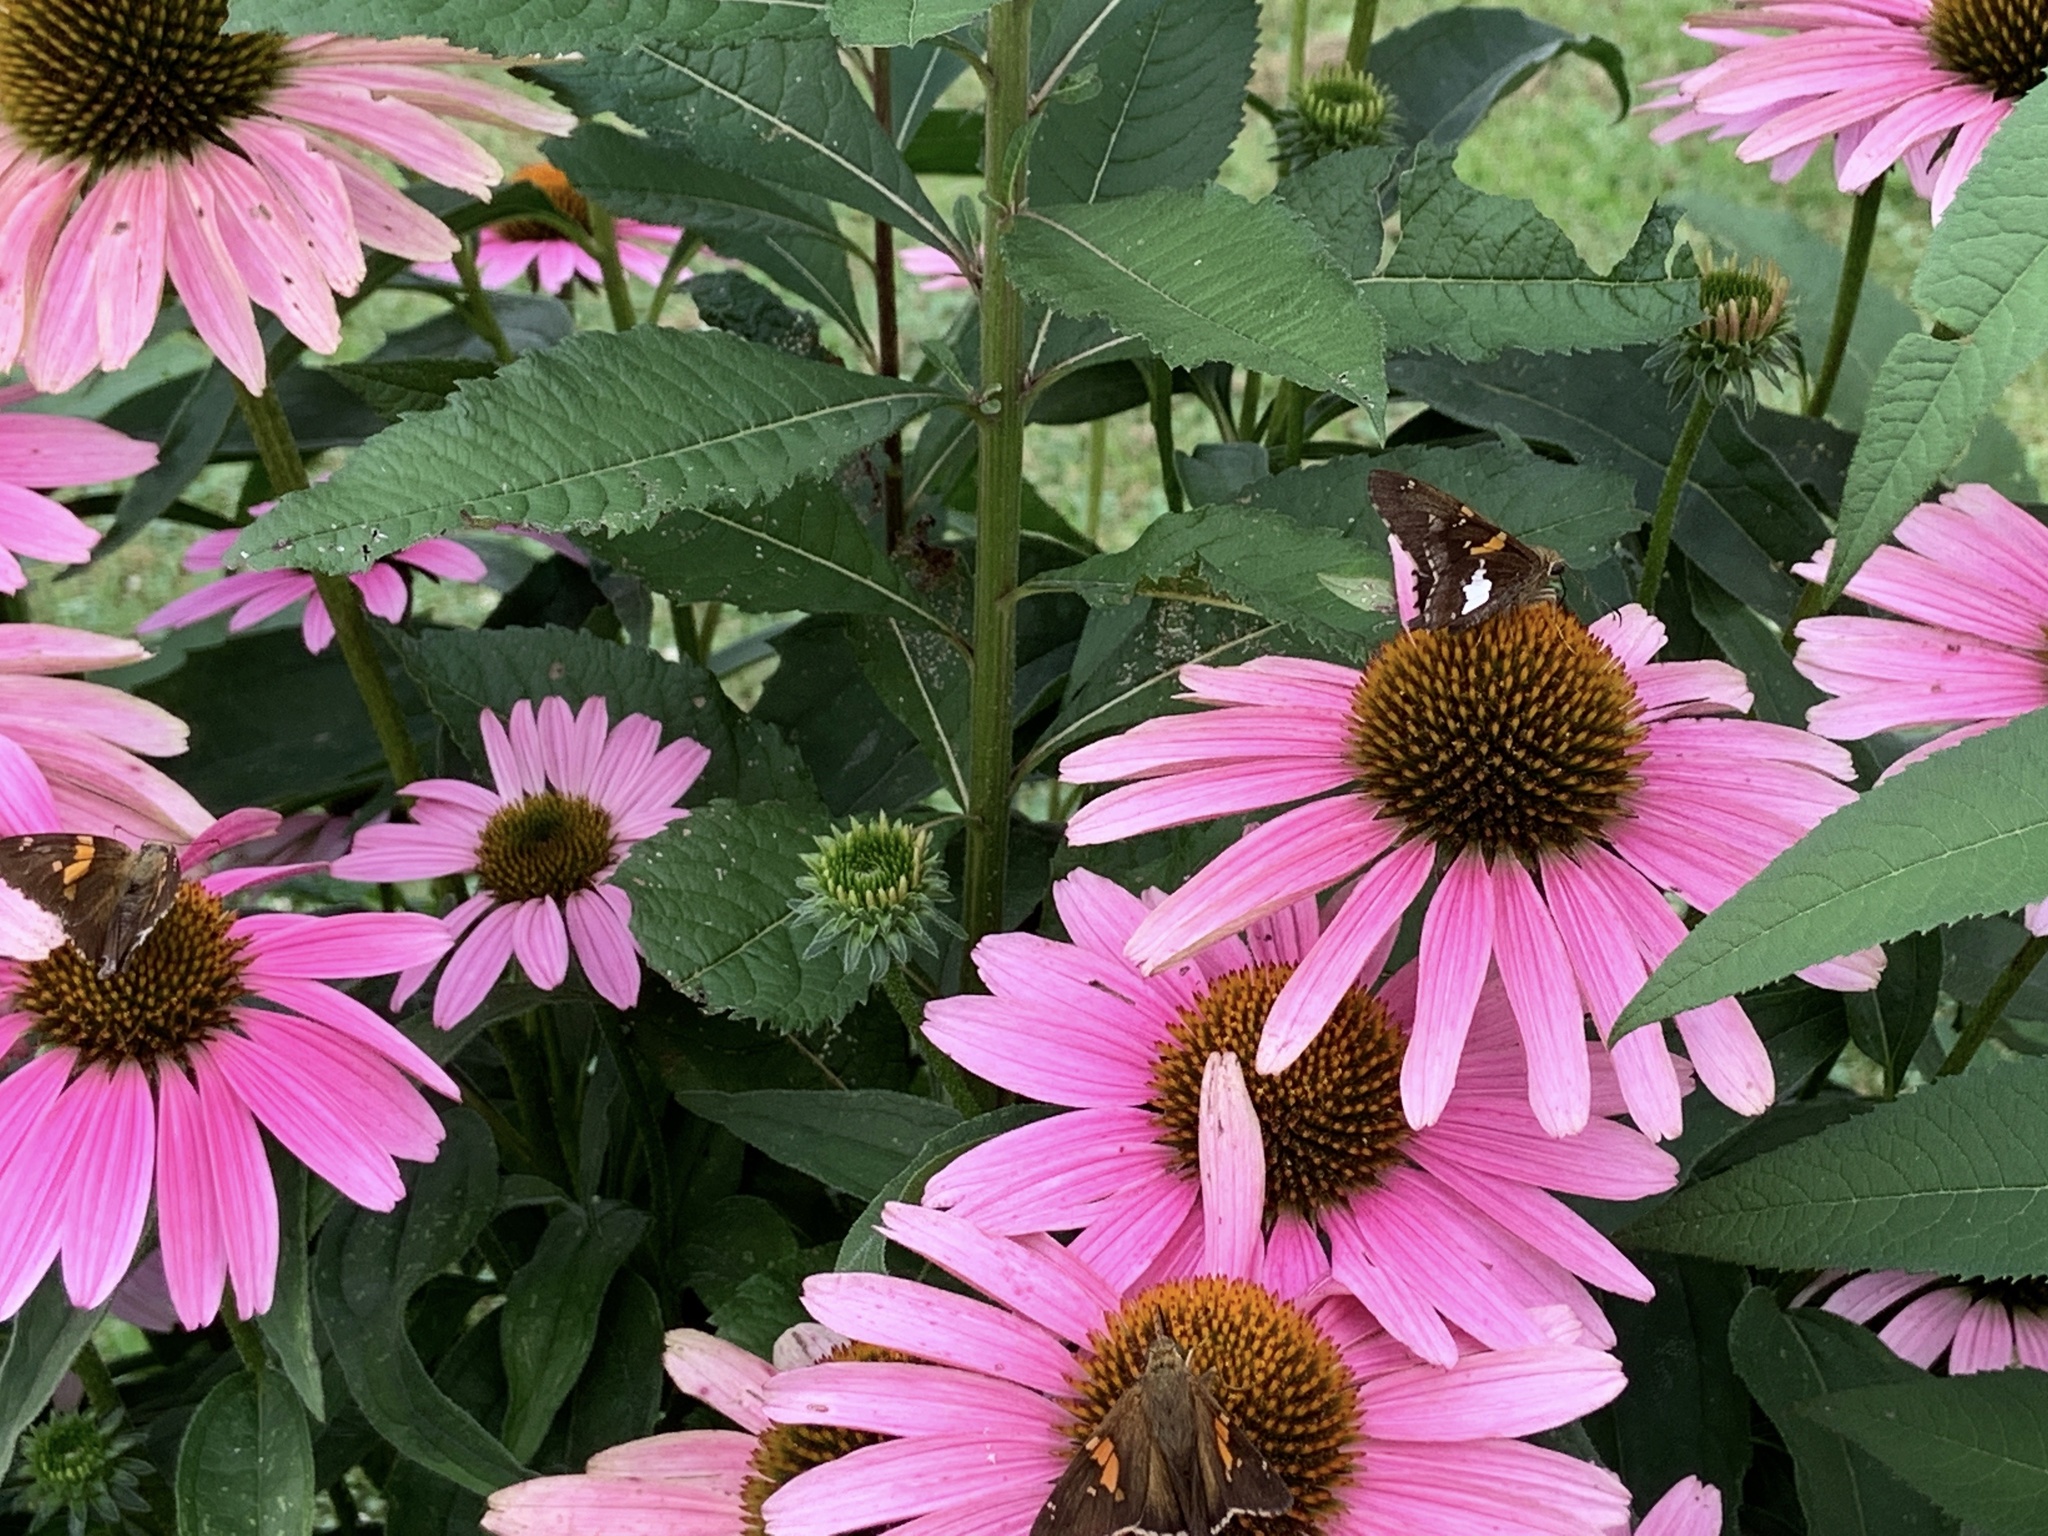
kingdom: Animalia
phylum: Arthropoda
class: Insecta
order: Lepidoptera
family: Hesperiidae
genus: Epargyreus
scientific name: Epargyreus clarus
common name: Silver-spotted skipper
